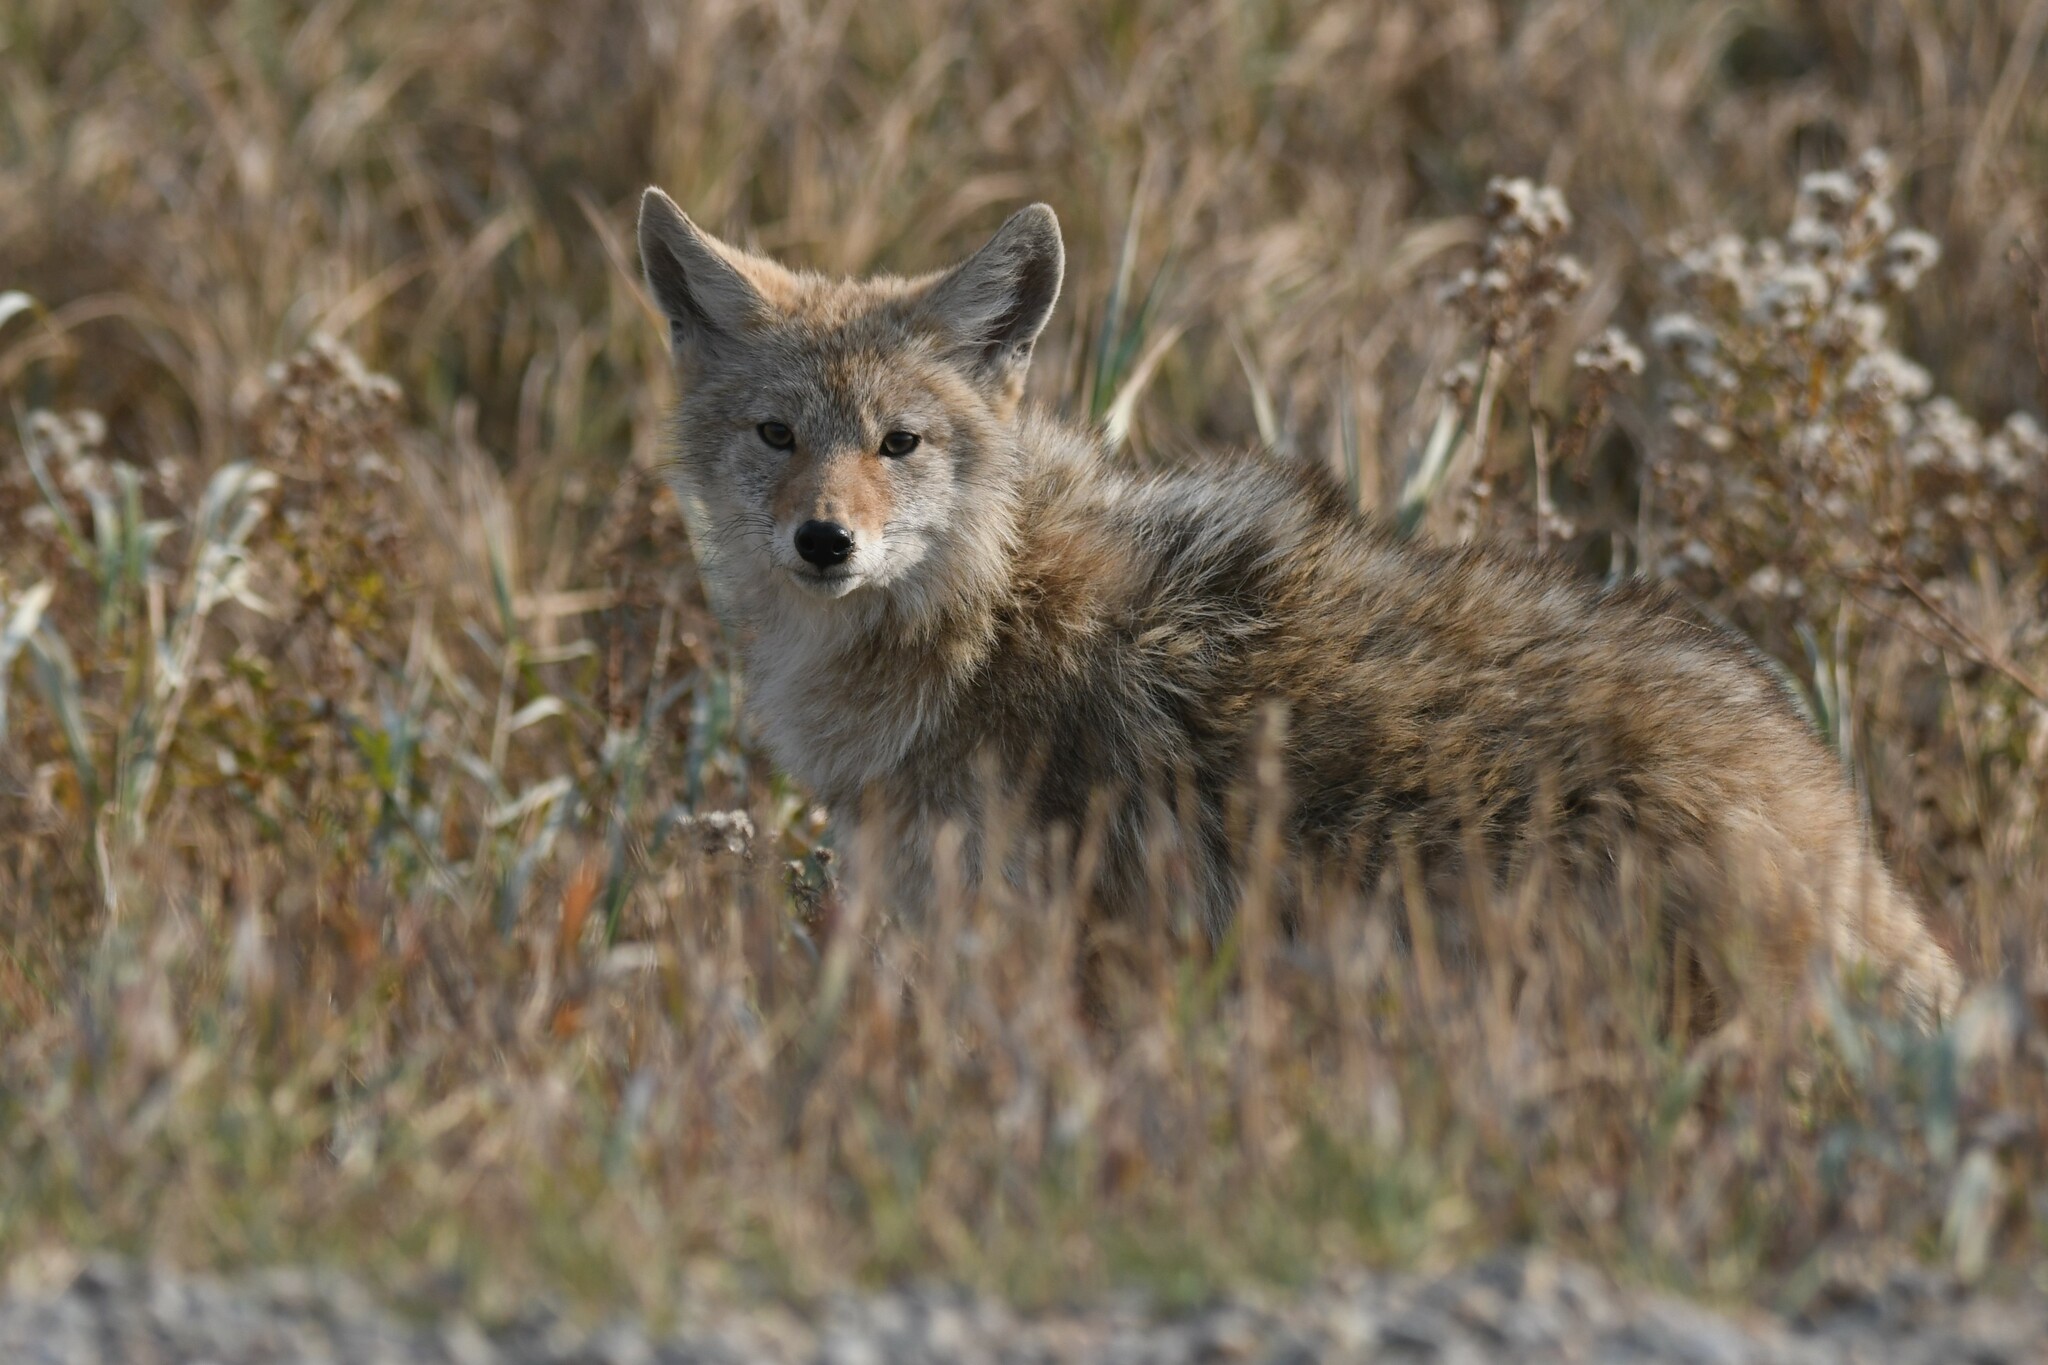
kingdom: Animalia
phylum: Chordata
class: Mammalia
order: Carnivora
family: Canidae
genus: Canis
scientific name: Canis latrans
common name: Coyote
